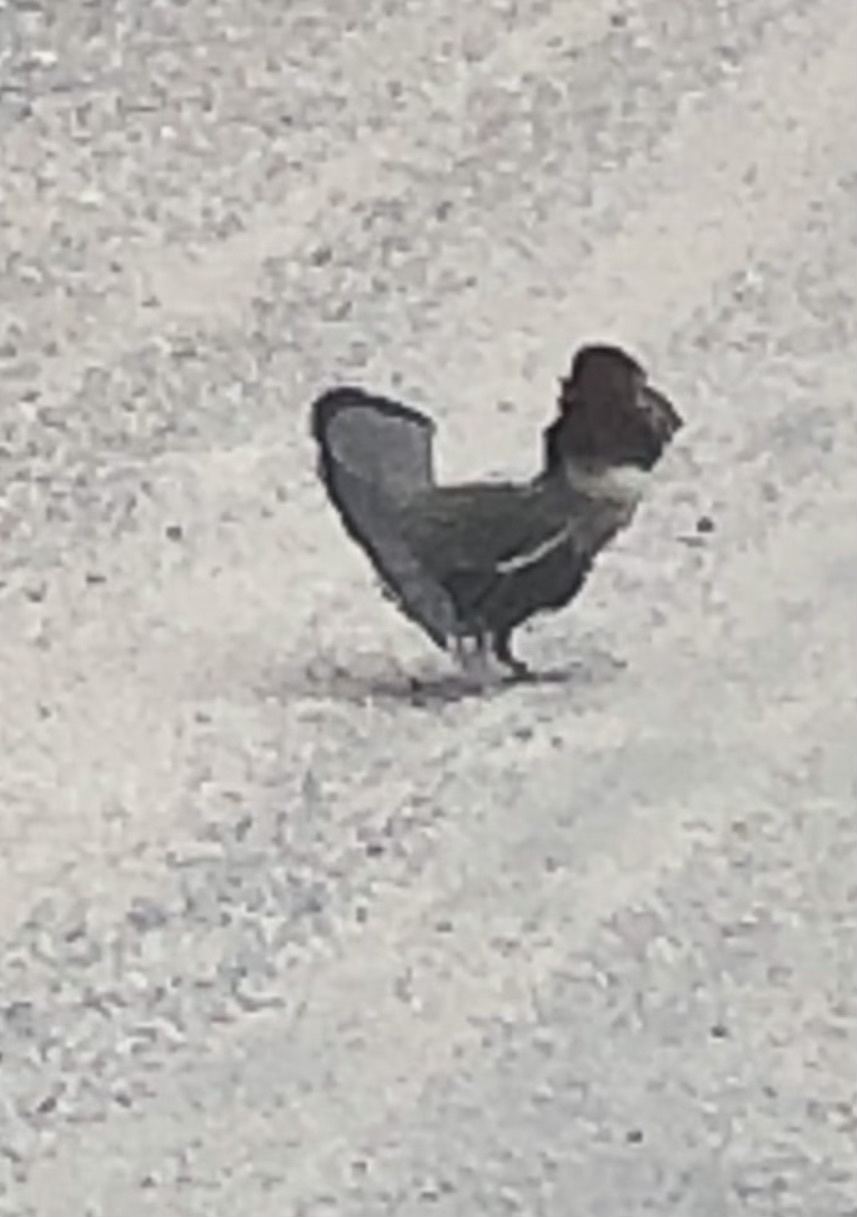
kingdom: Animalia
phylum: Chordata
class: Aves
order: Galliformes
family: Phasianidae
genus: Bonasa
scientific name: Bonasa umbellus
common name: Ruffed grouse
